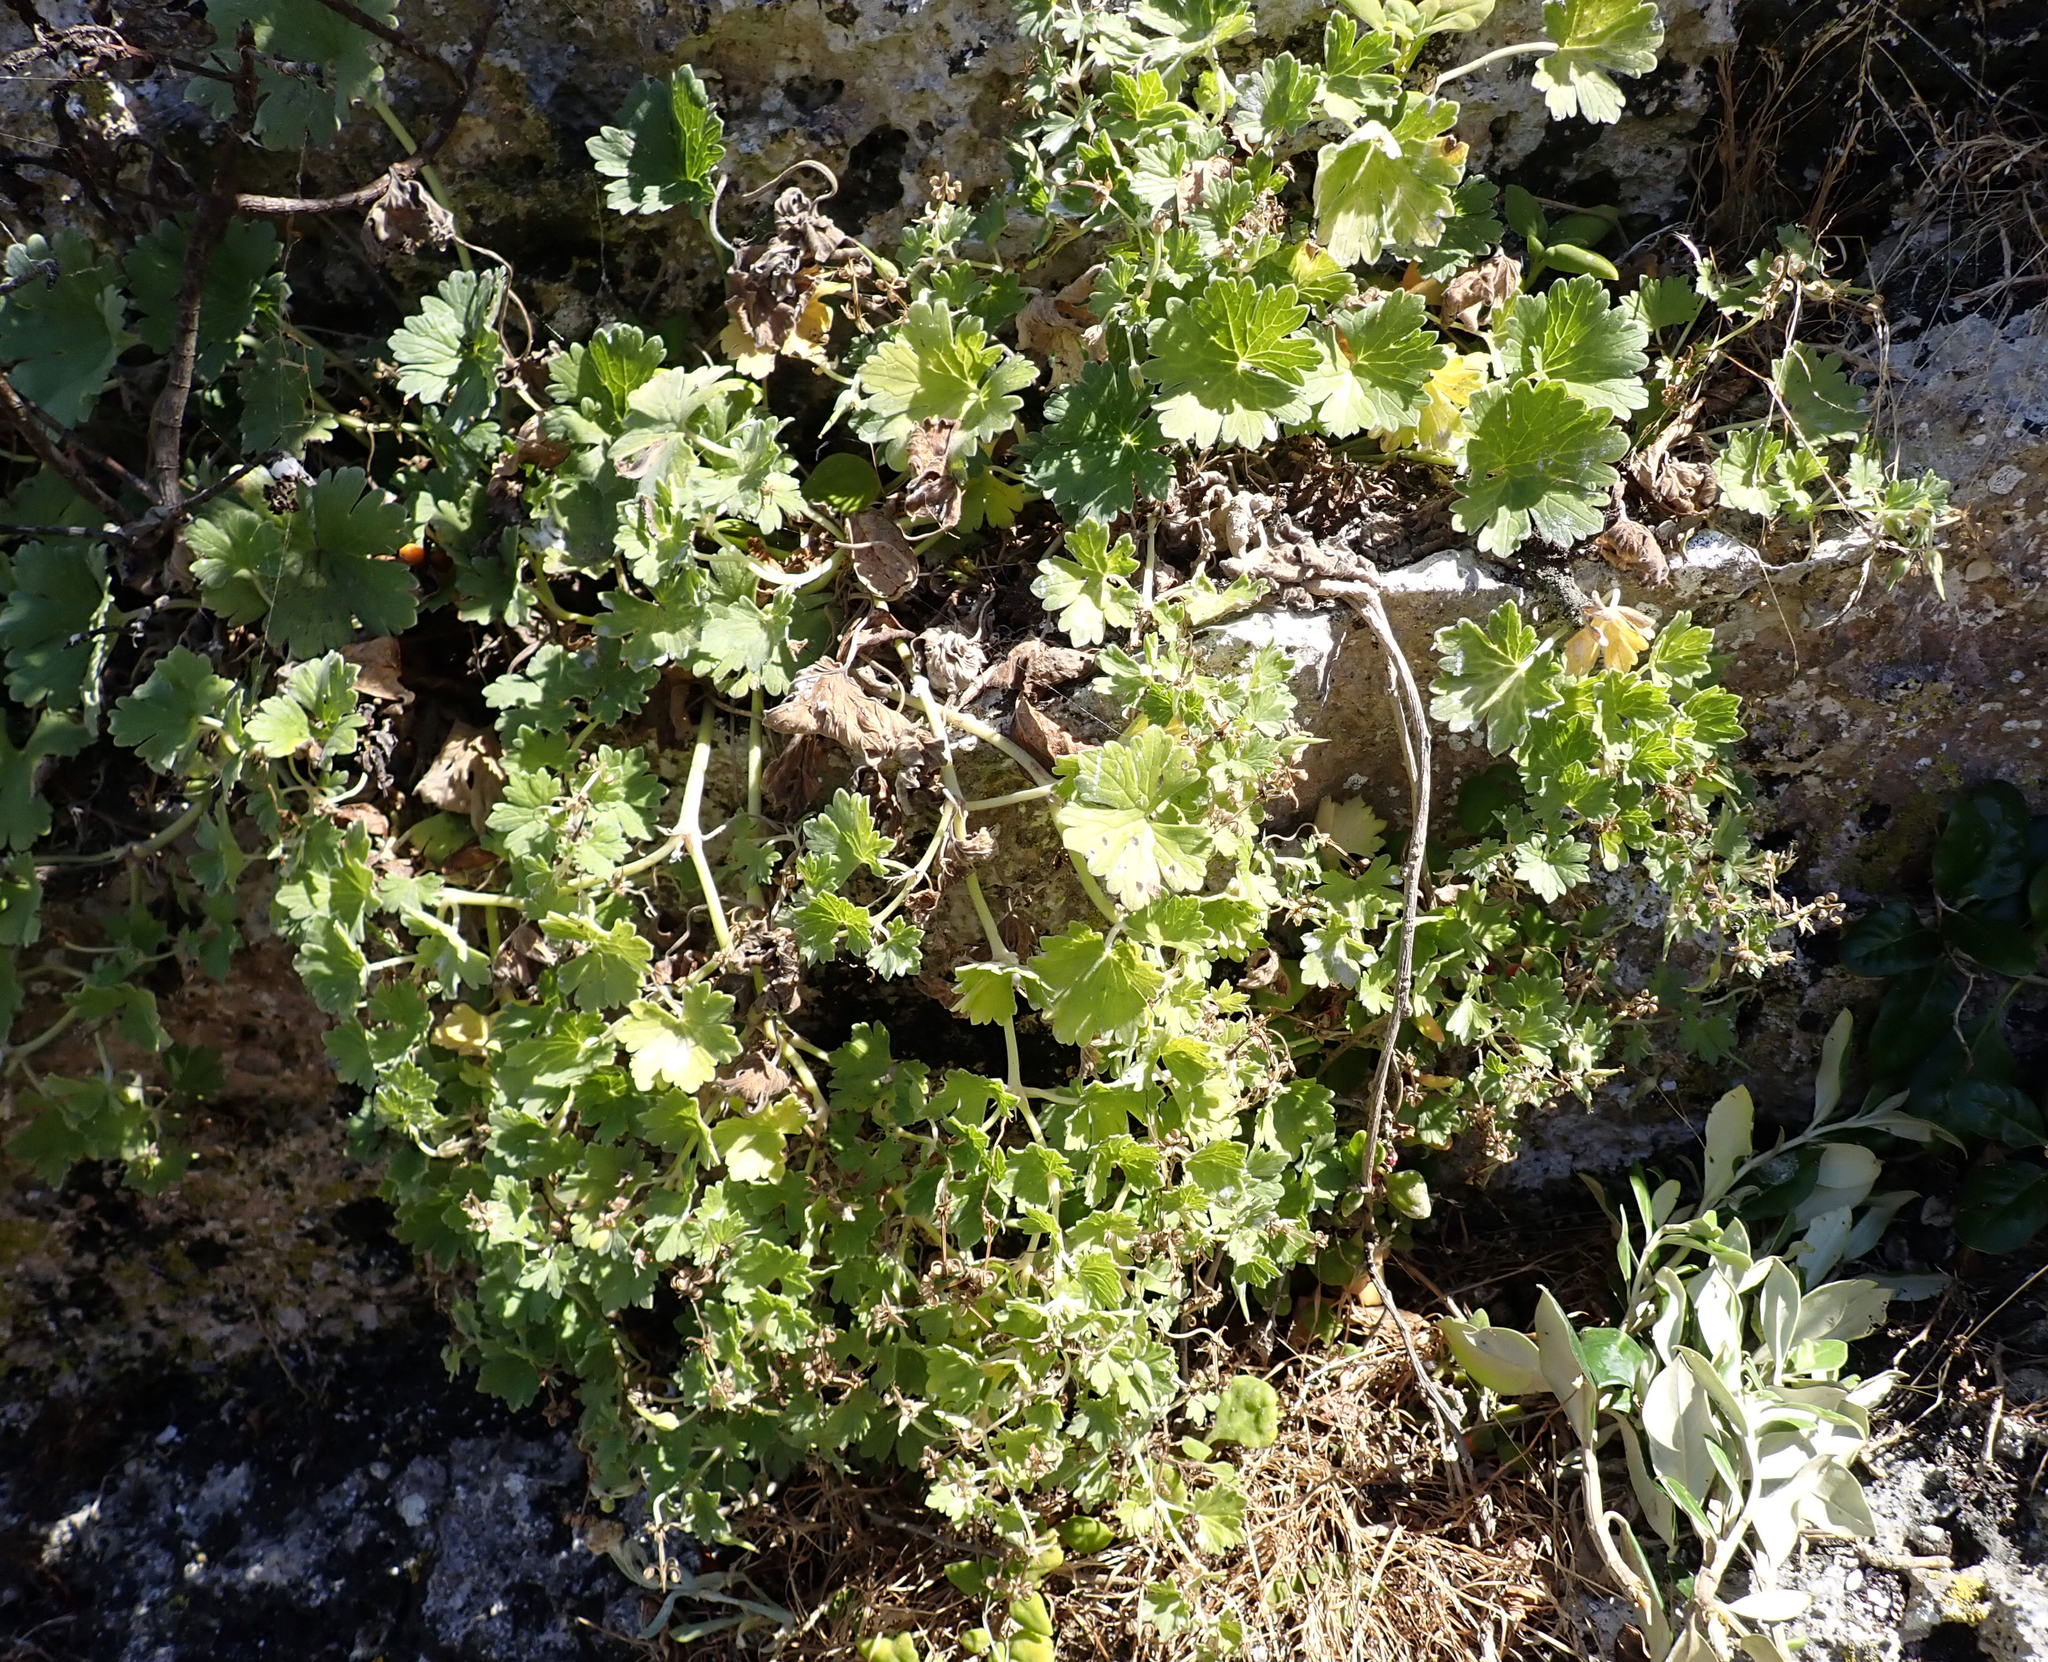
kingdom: Plantae
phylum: Tracheophyta
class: Magnoliopsida
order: Geraniales
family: Geraniaceae
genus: Geranium
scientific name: Geranium traversii
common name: Cranesbill
